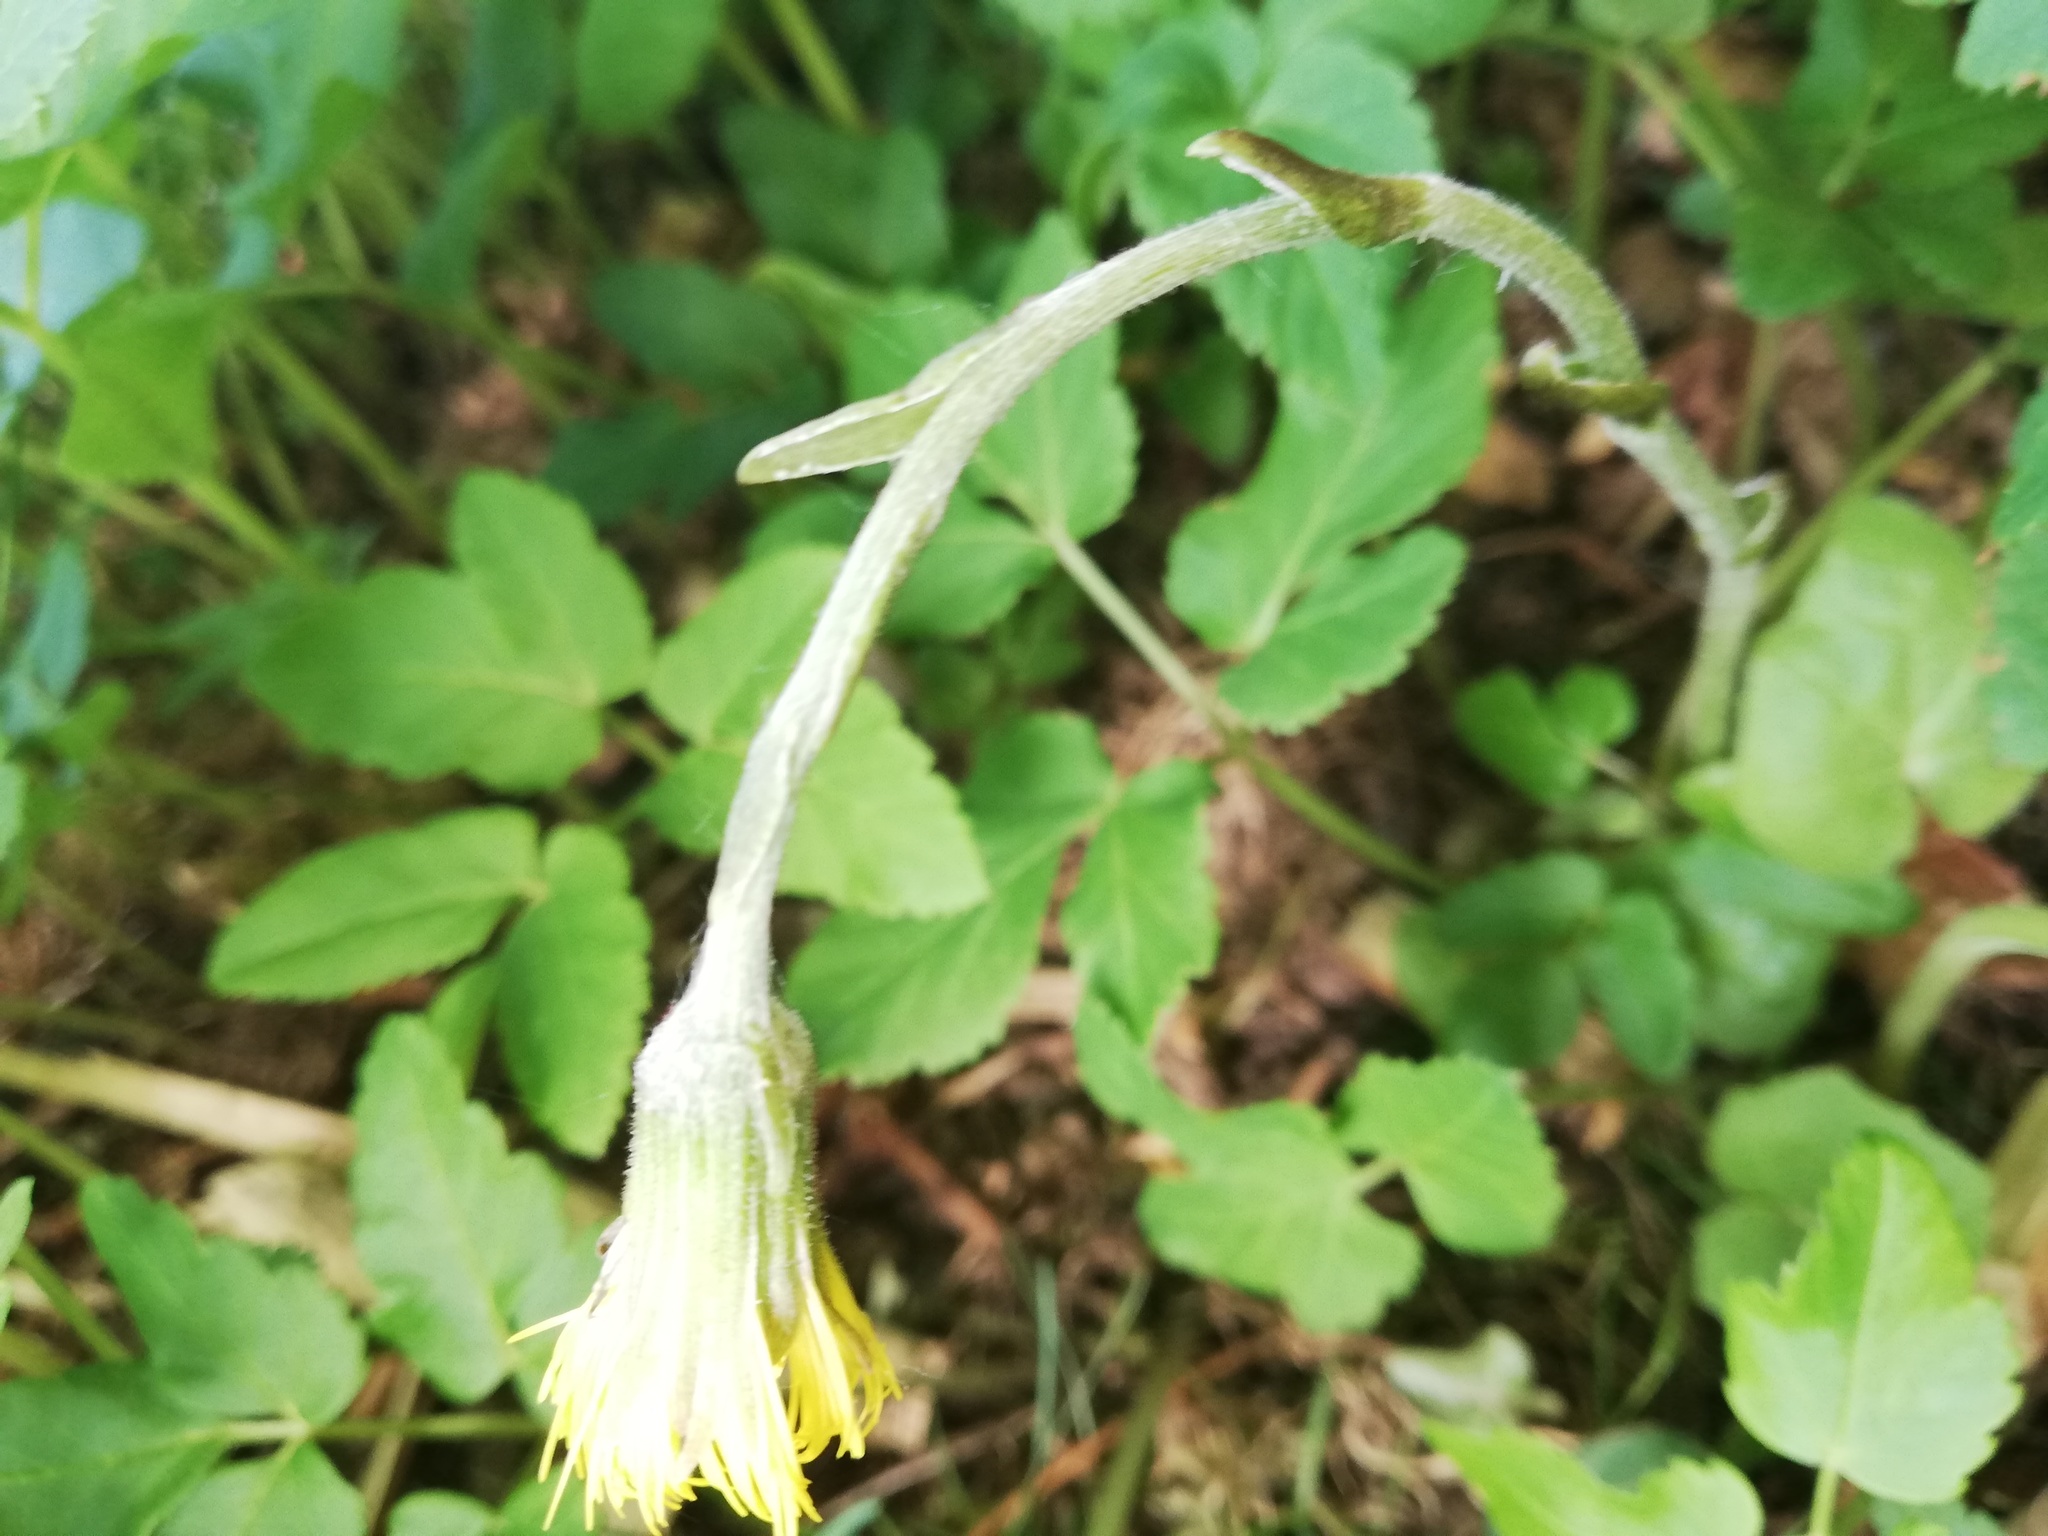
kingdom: Plantae
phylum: Tracheophyta
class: Magnoliopsida
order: Asterales
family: Asteraceae
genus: Tussilago
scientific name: Tussilago farfara
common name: Coltsfoot
